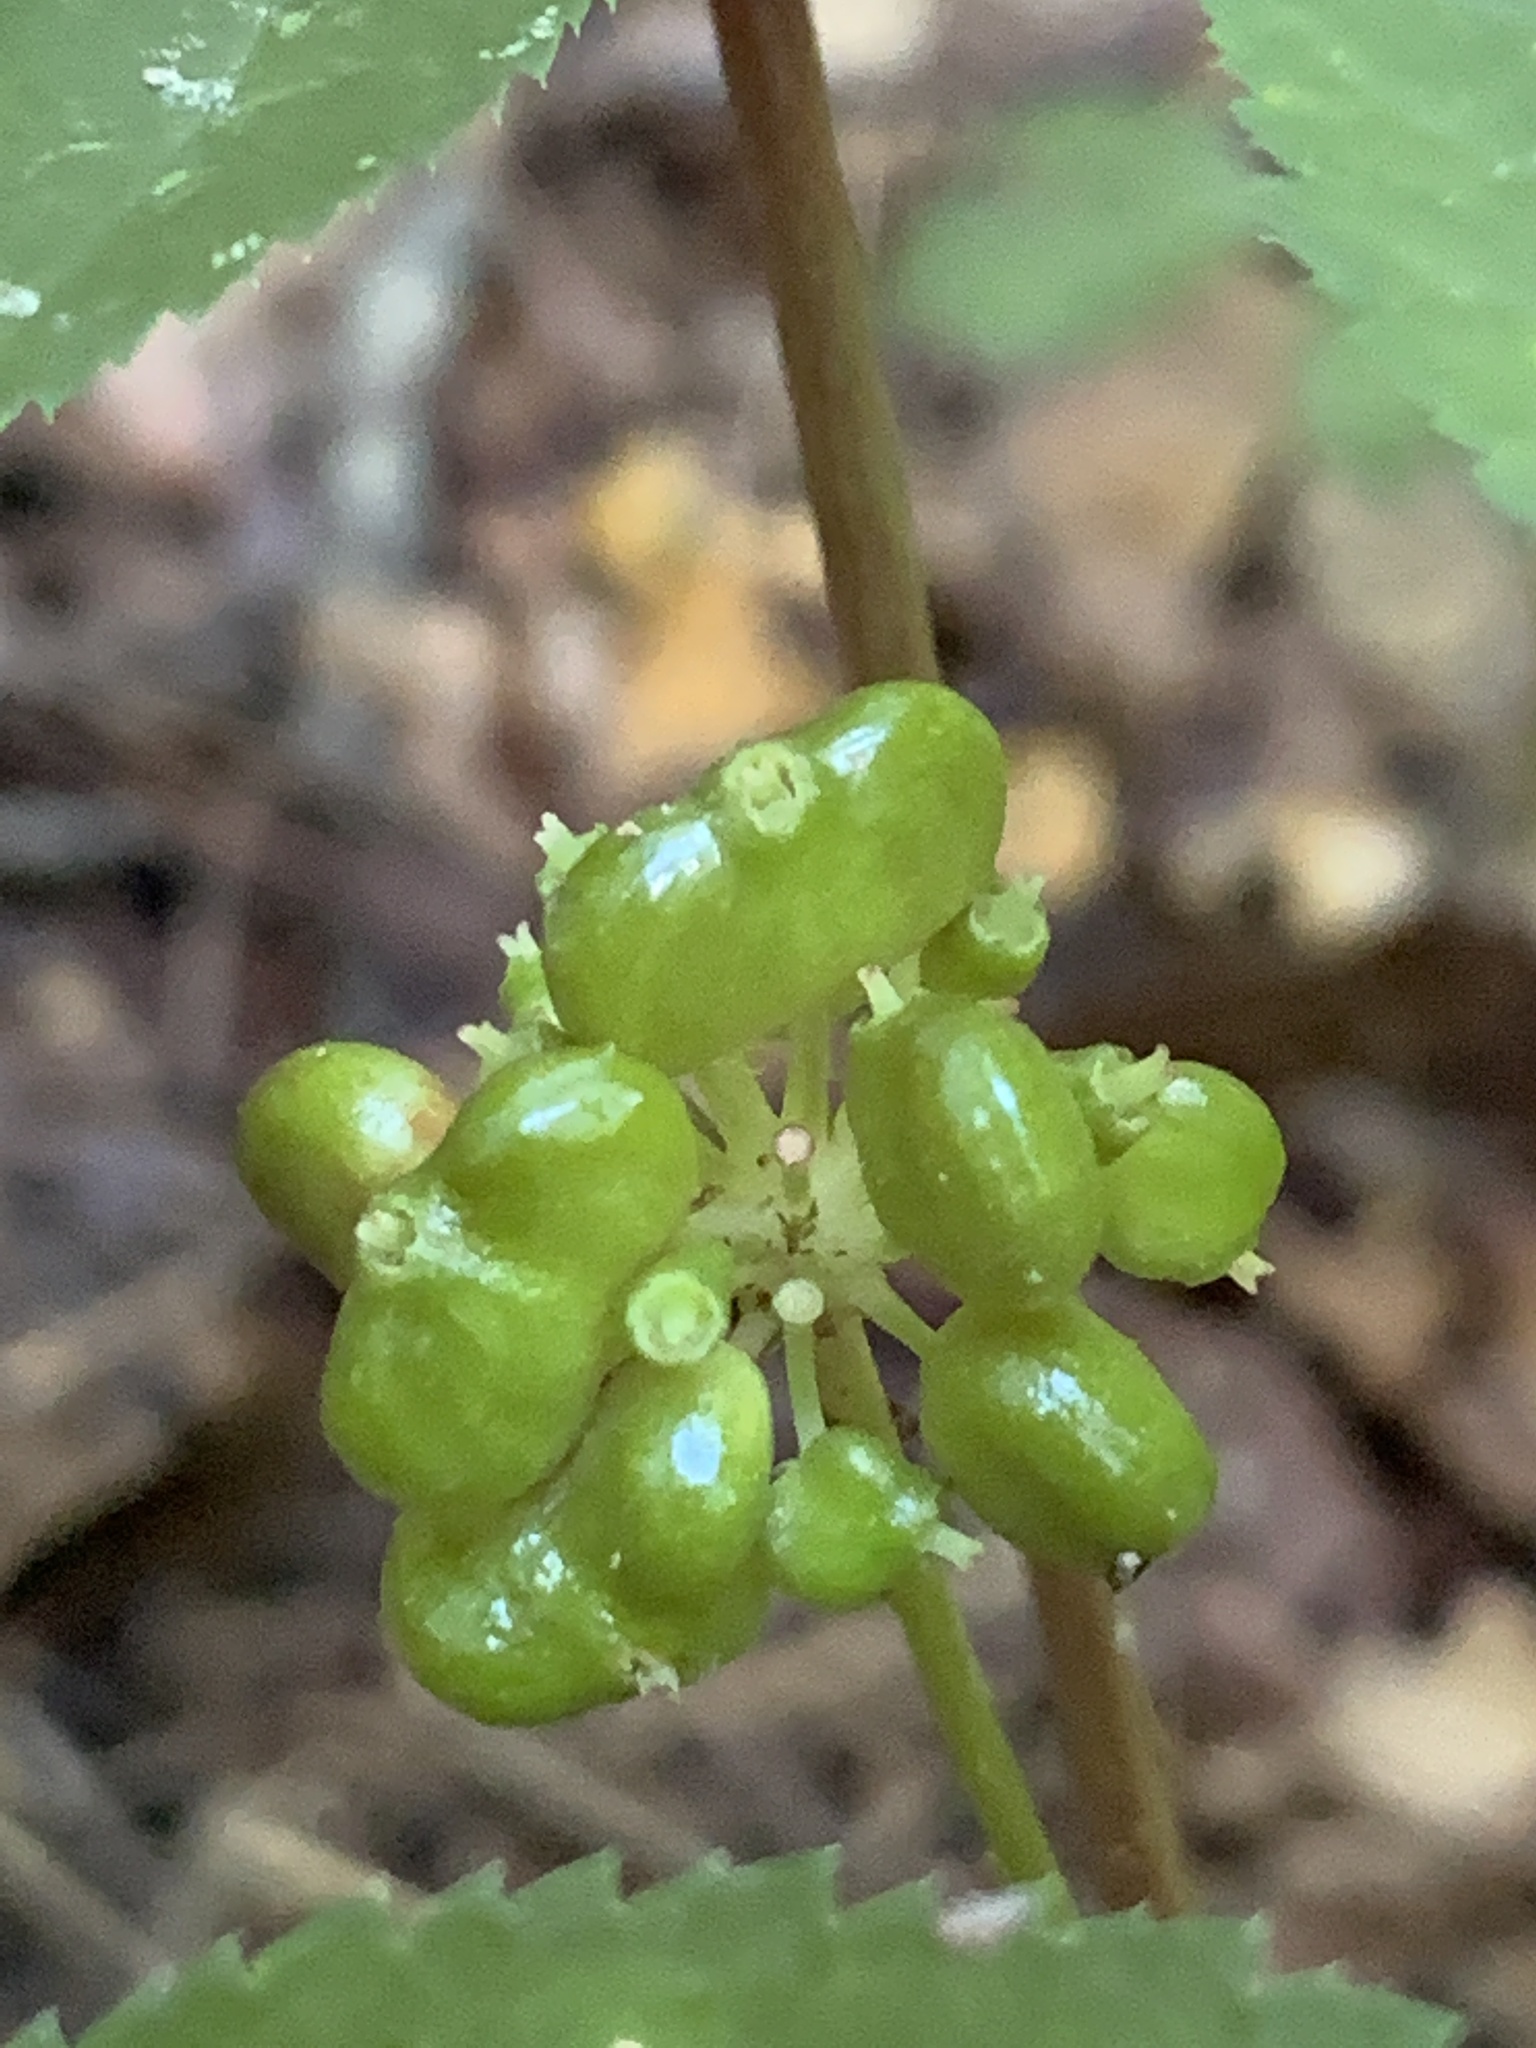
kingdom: Plantae
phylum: Tracheophyta
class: Magnoliopsida
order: Apiales
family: Araliaceae
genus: Panax
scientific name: Panax quinquefolius
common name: American ginseng
